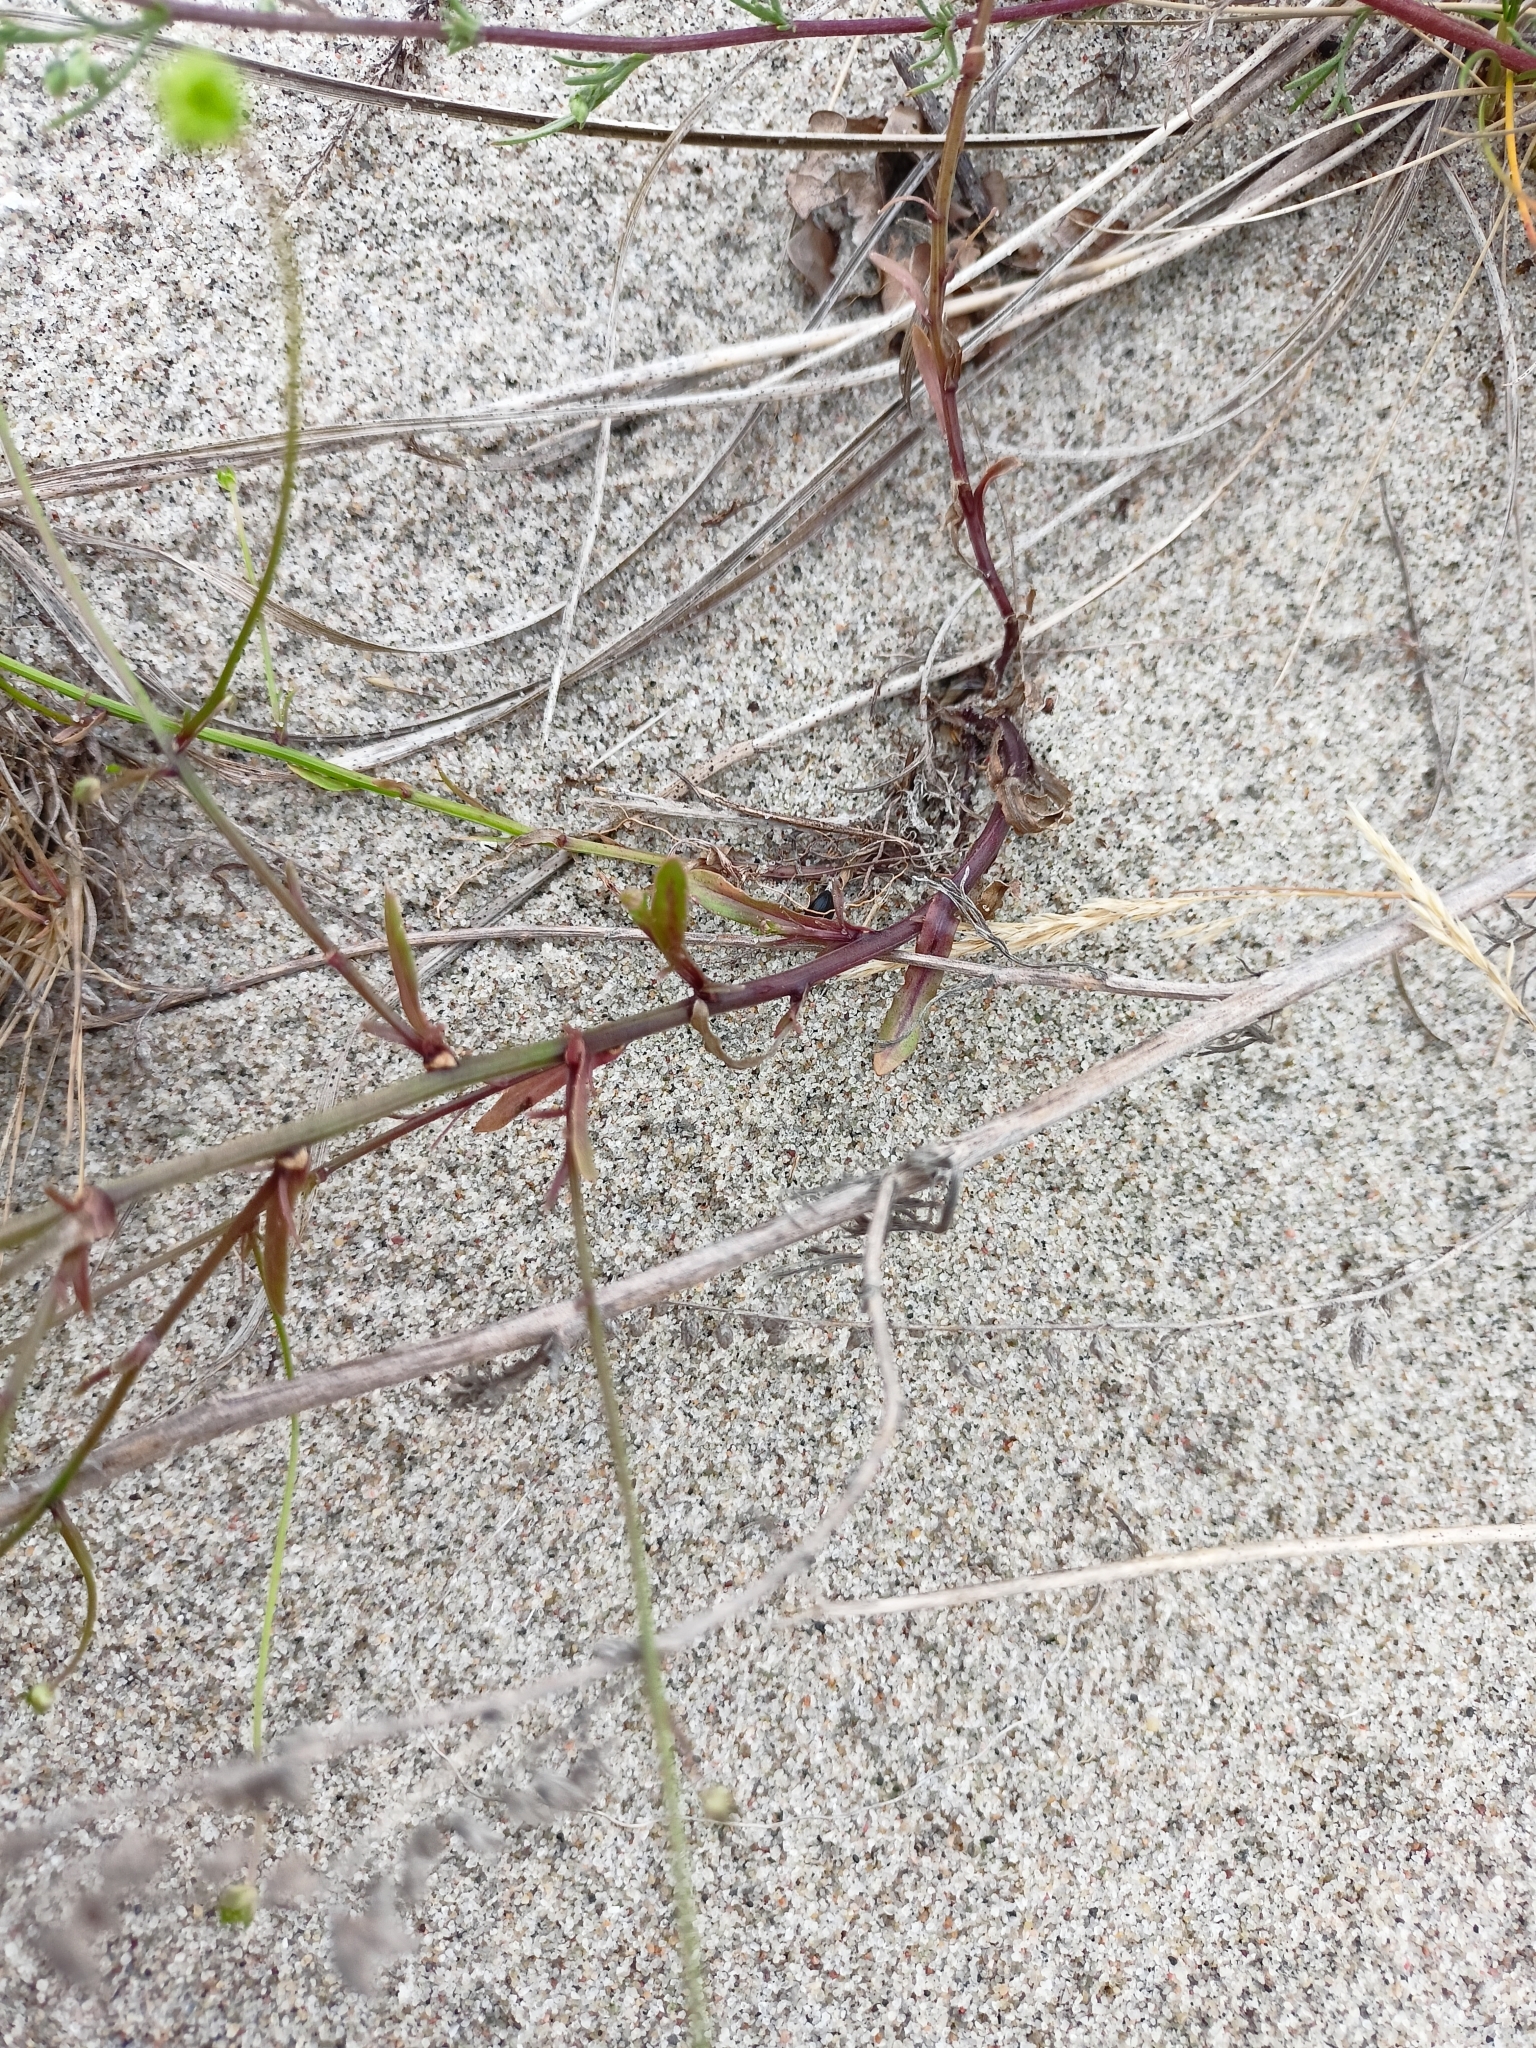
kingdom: Plantae
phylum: Tracheophyta
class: Magnoliopsida
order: Asterales
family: Campanulaceae
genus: Jasione
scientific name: Jasione montana
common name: Sheep's-bit
